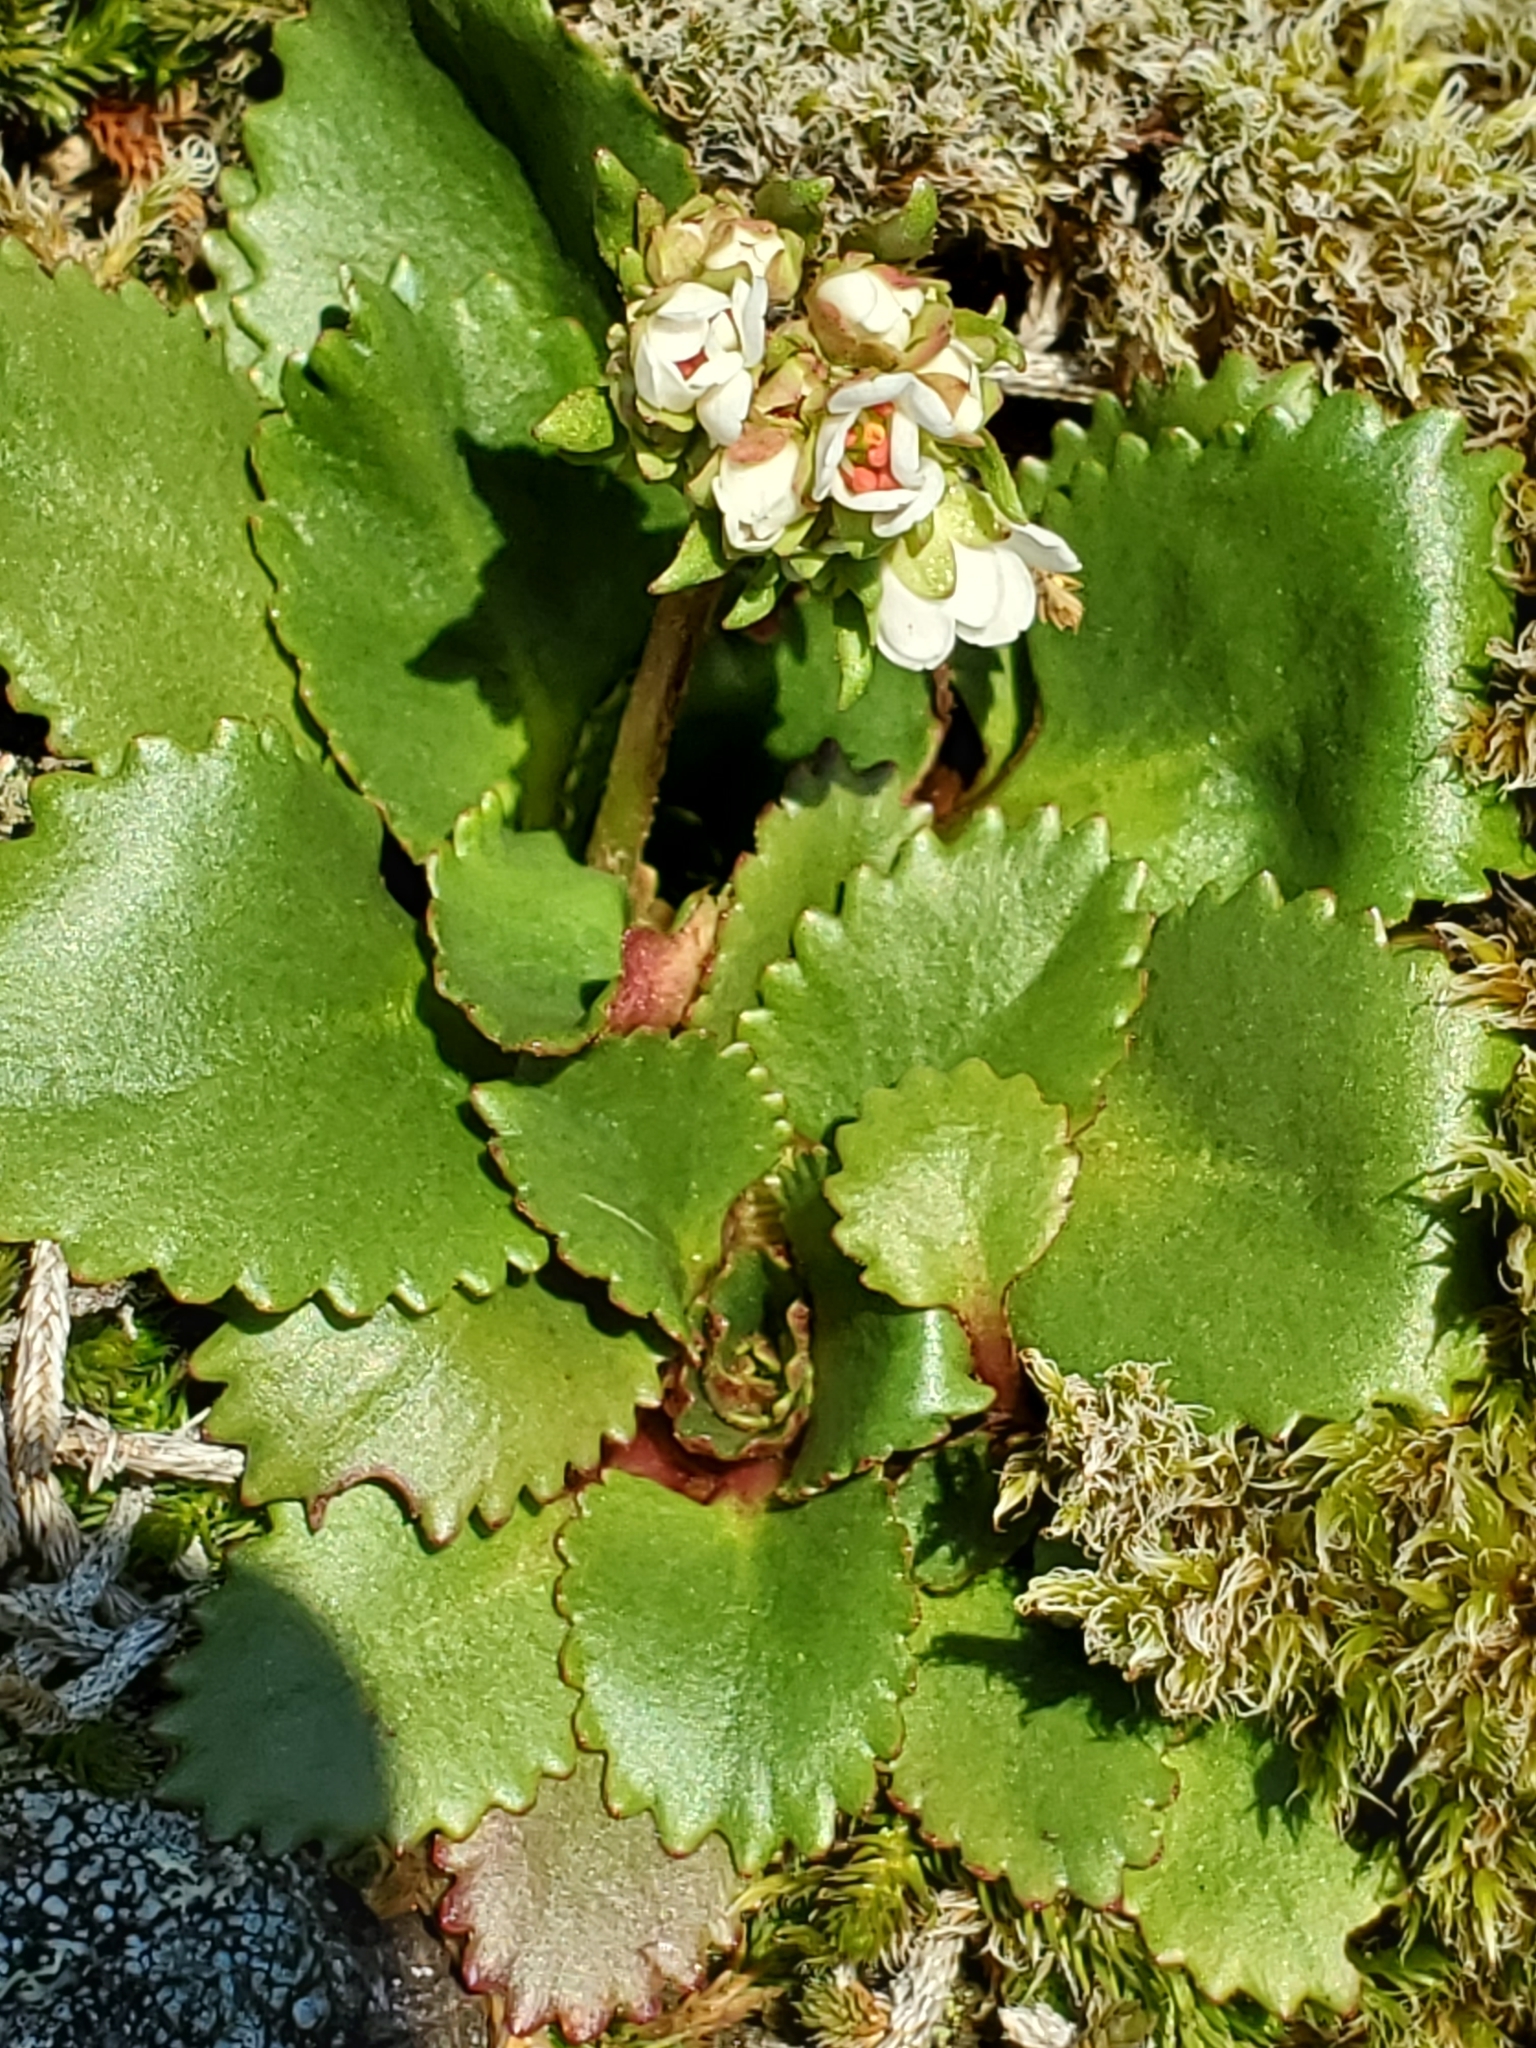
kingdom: Plantae
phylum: Tracheophyta
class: Magnoliopsida
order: Saxifragales
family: Saxifragaceae
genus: Micranthes
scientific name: Micranthes rufidula
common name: Rustyhair saxifrage
